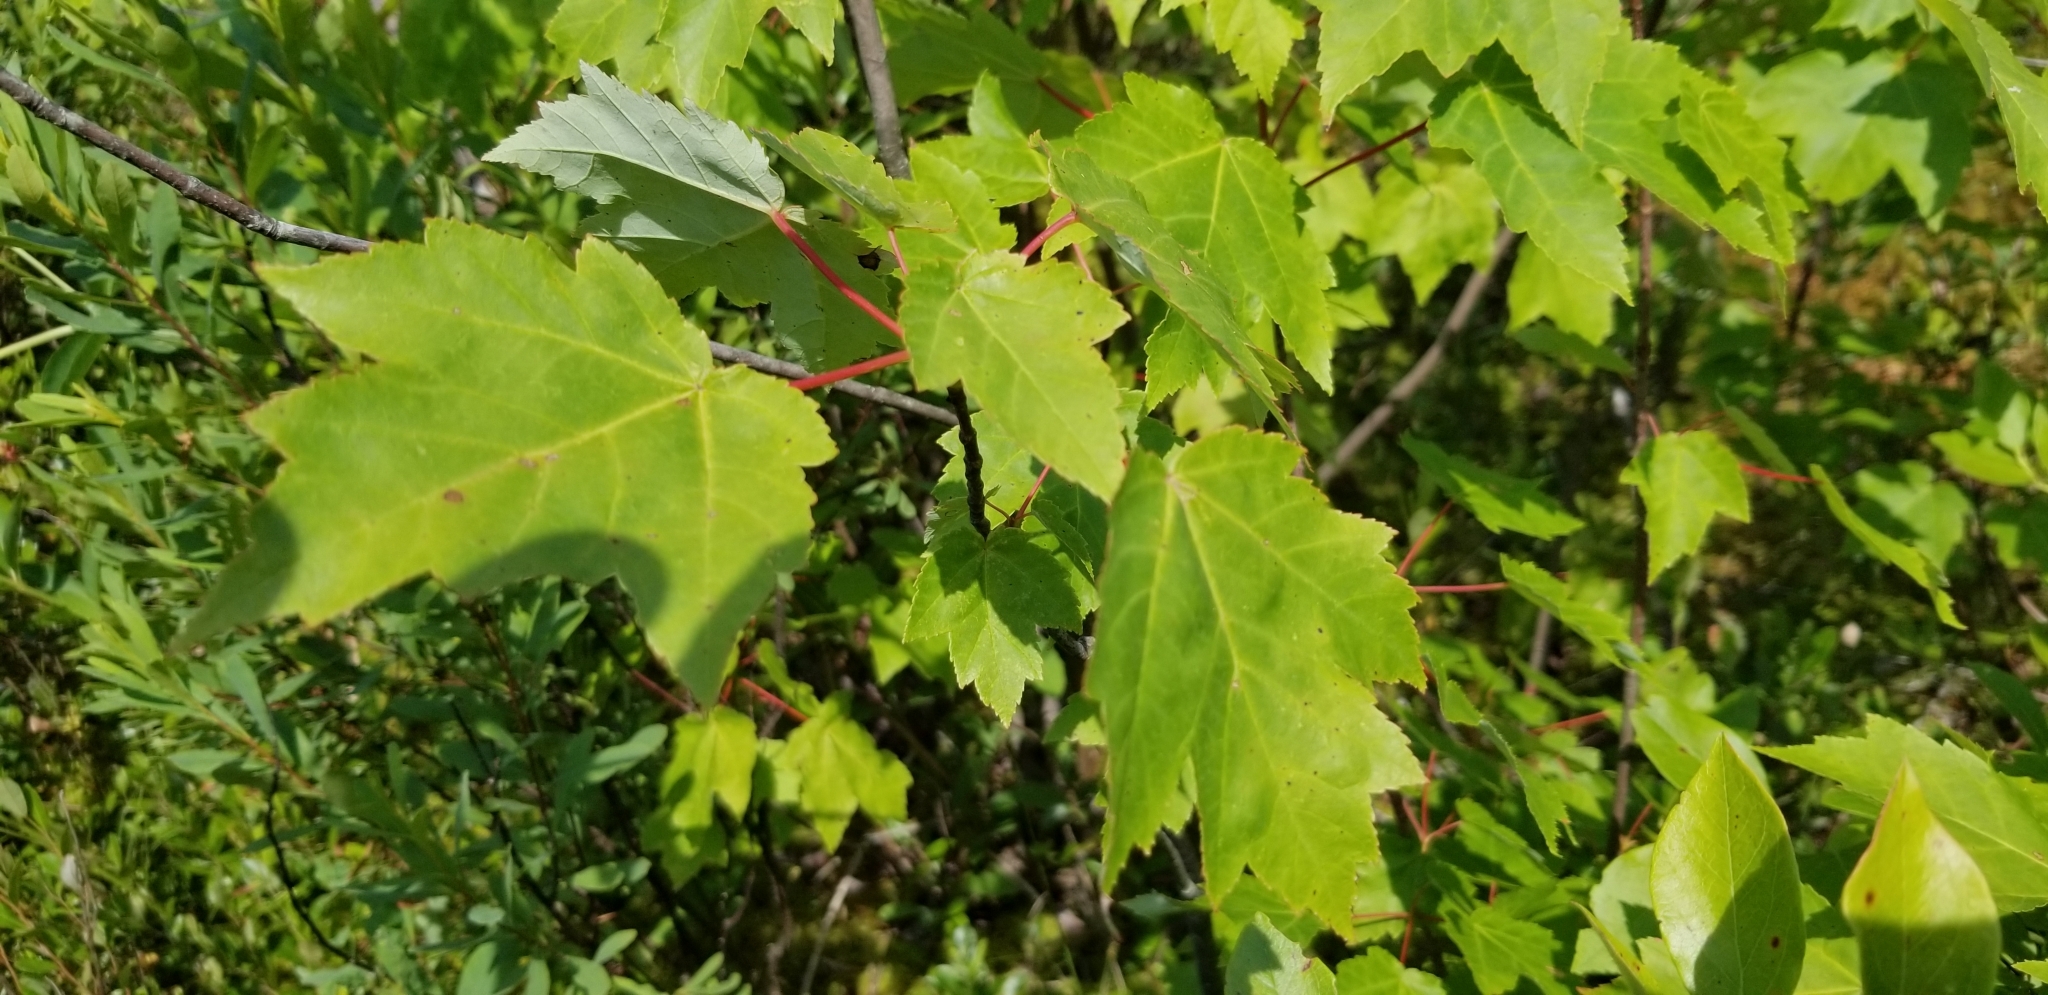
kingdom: Plantae
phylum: Tracheophyta
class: Magnoliopsida
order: Sapindales
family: Sapindaceae
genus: Acer
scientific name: Acer rubrum
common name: Red maple
